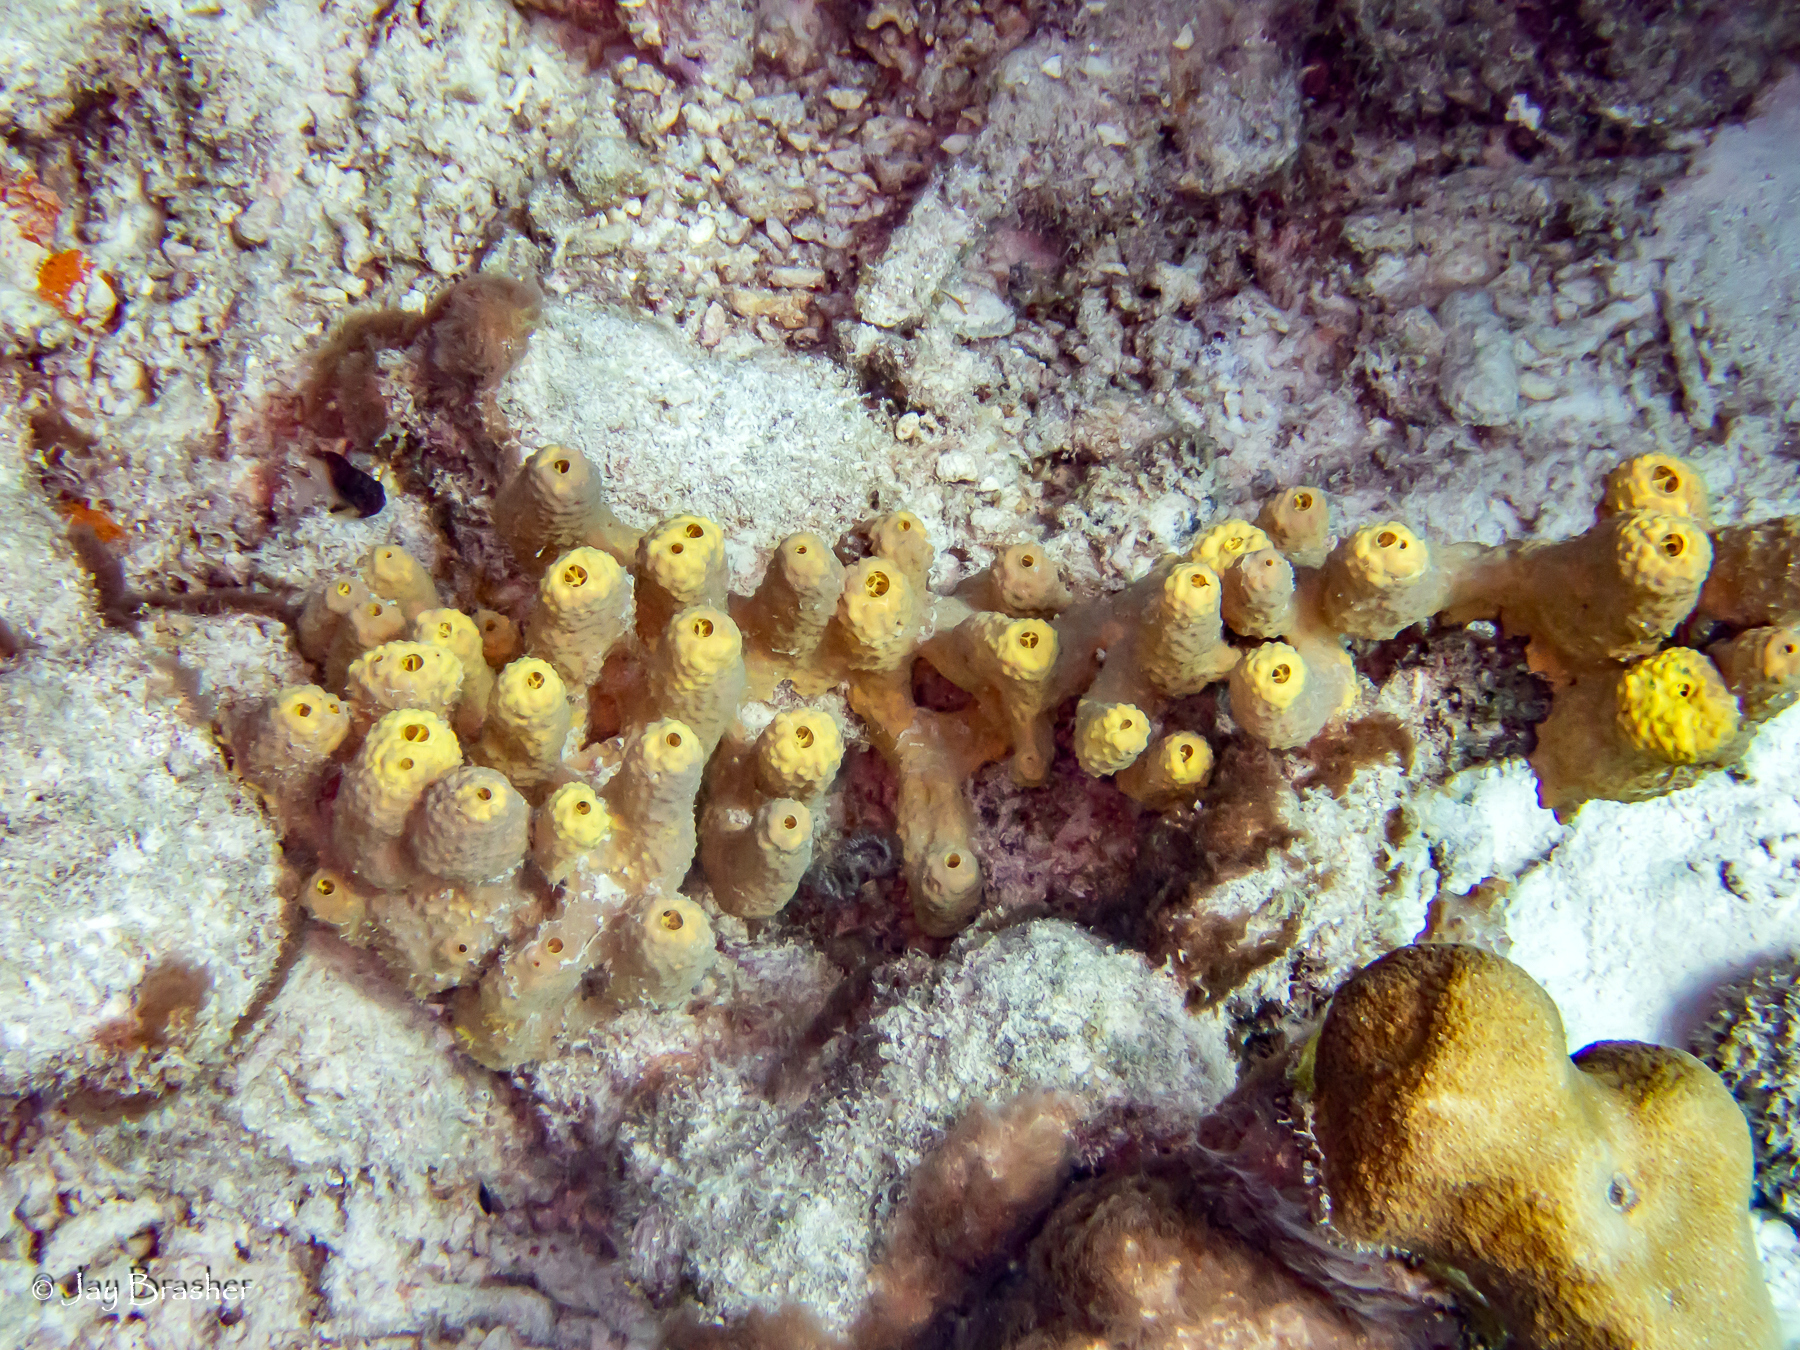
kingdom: Animalia
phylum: Porifera
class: Demospongiae
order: Verongiida
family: Aplysinidae
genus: Aiolochroia
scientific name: Aiolochroia crassa
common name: Branching tube sponge
